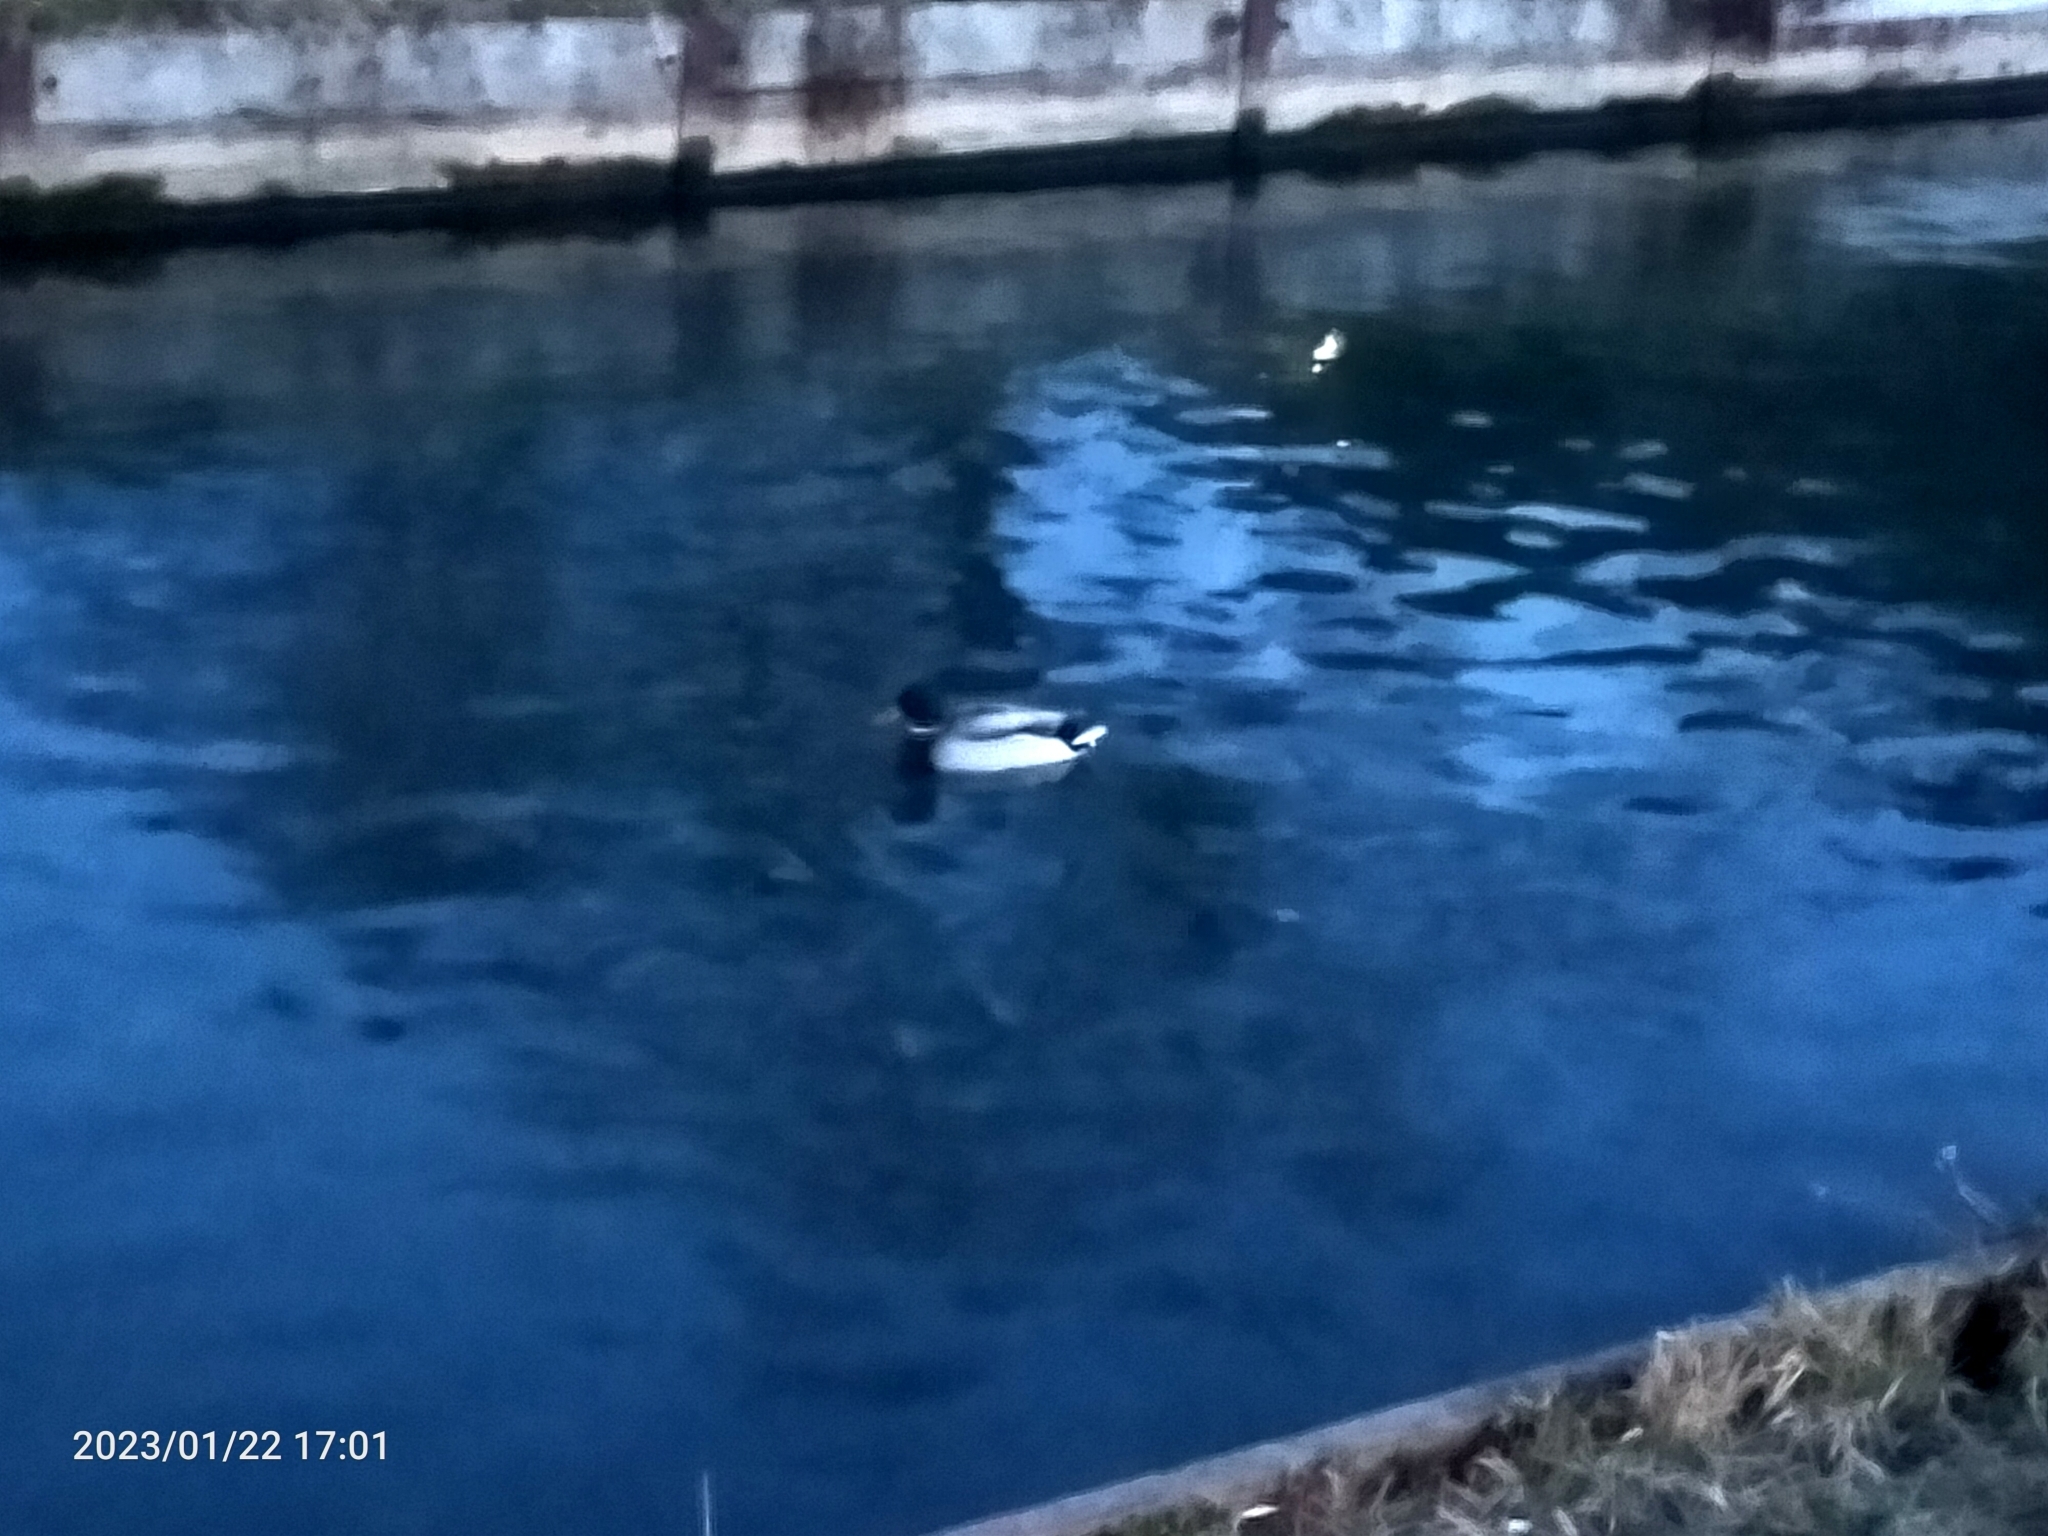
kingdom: Animalia
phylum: Chordata
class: Aves
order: Anseriformes
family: Anatidae
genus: Anas
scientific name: Anas platyrhynchos
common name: Mallard
